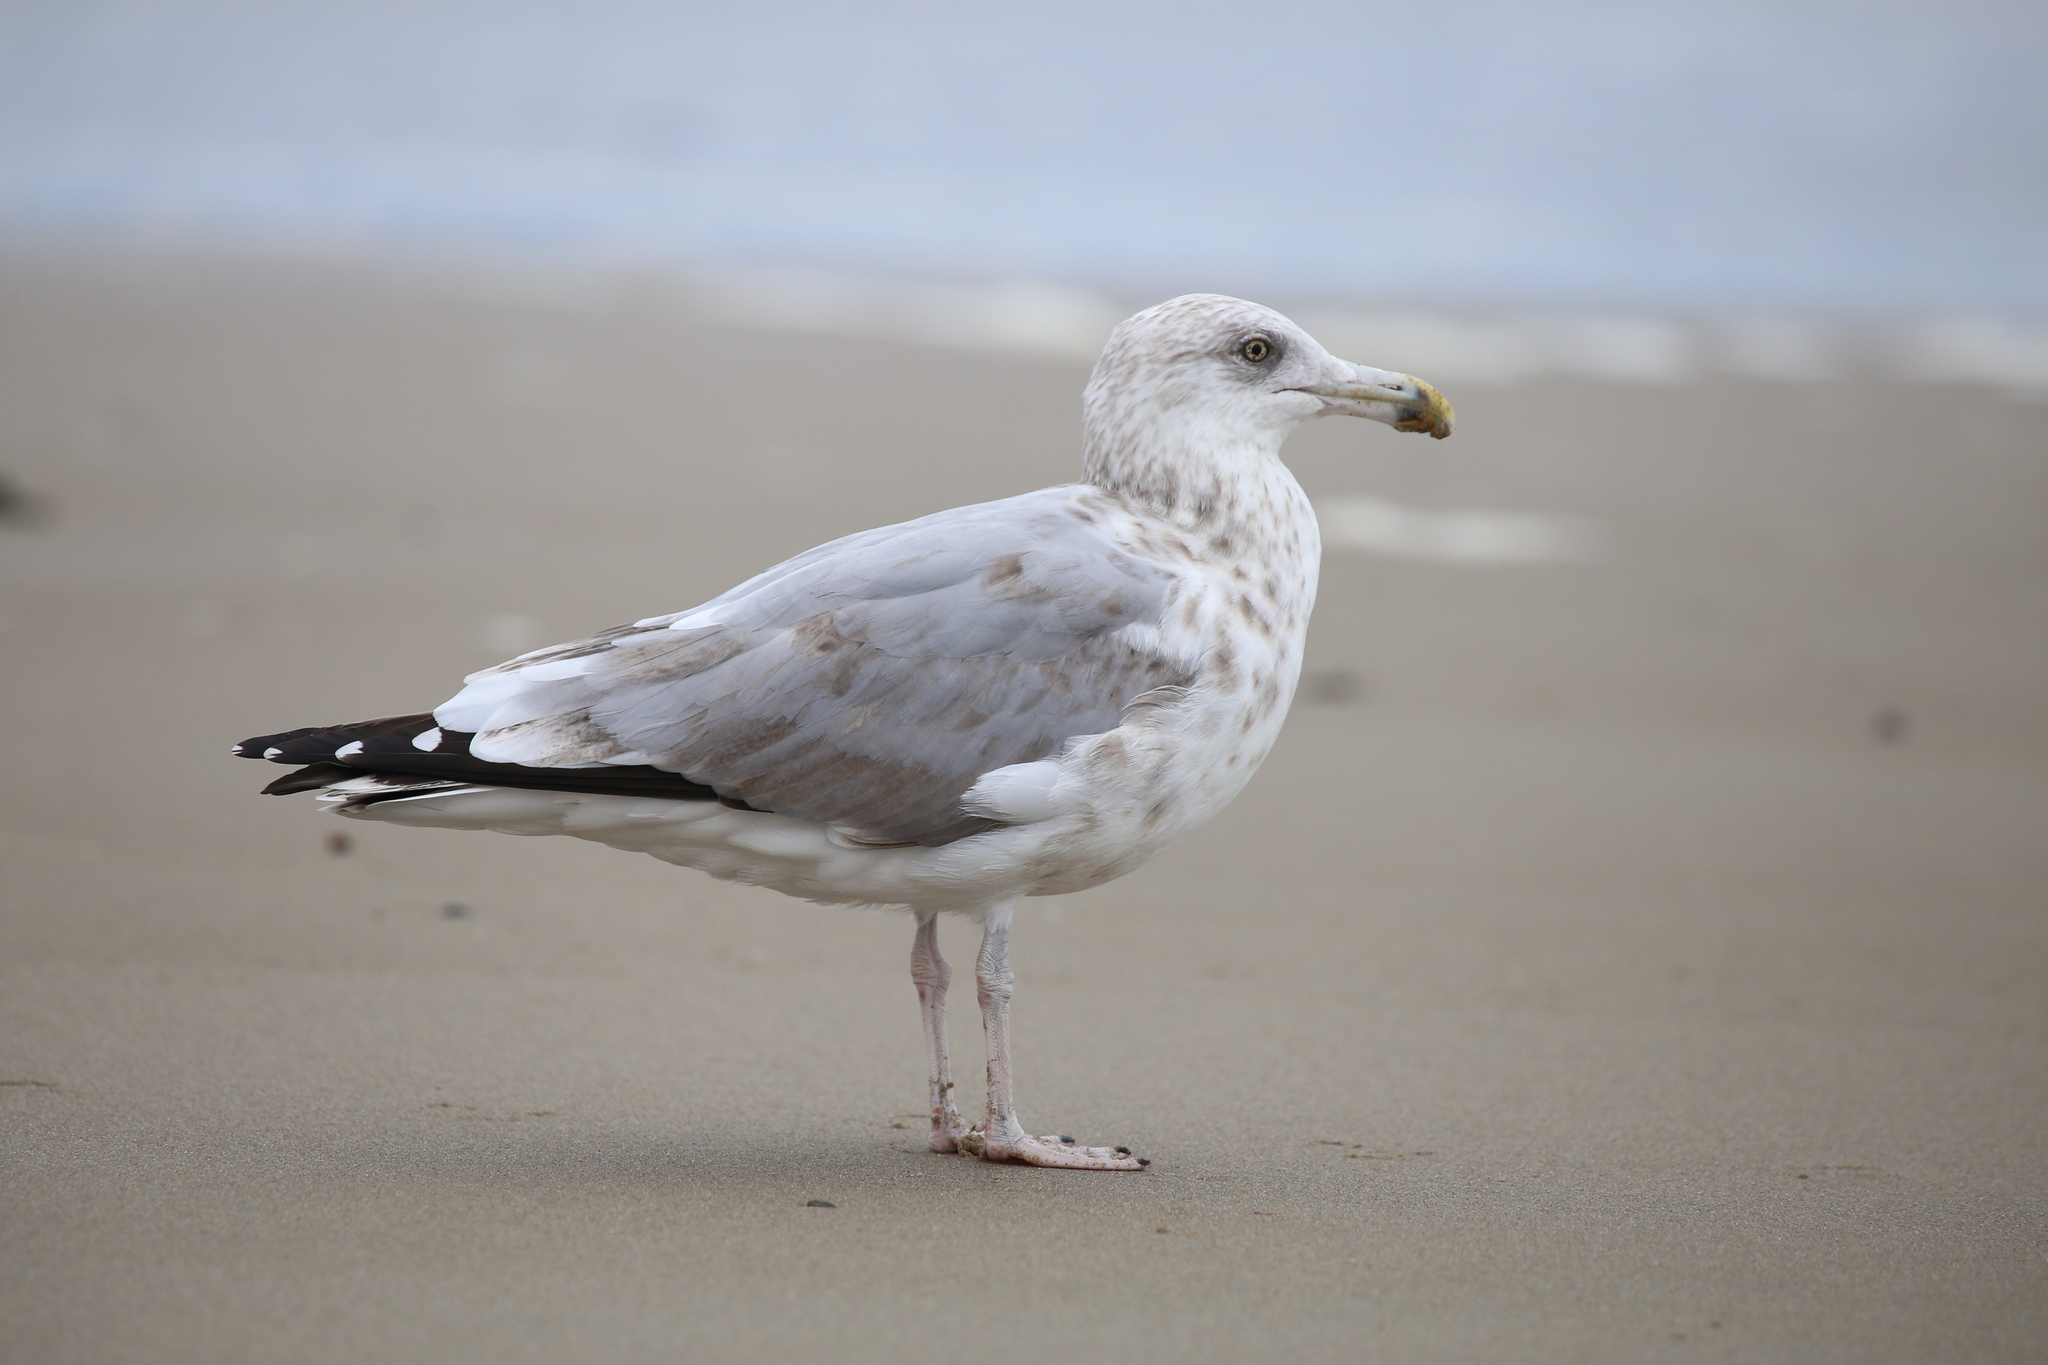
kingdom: Animalia
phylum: Chordata
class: Aves
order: Charadriiformes
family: Laridae
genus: Larus
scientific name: Larus argentatus
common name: Herring gull
